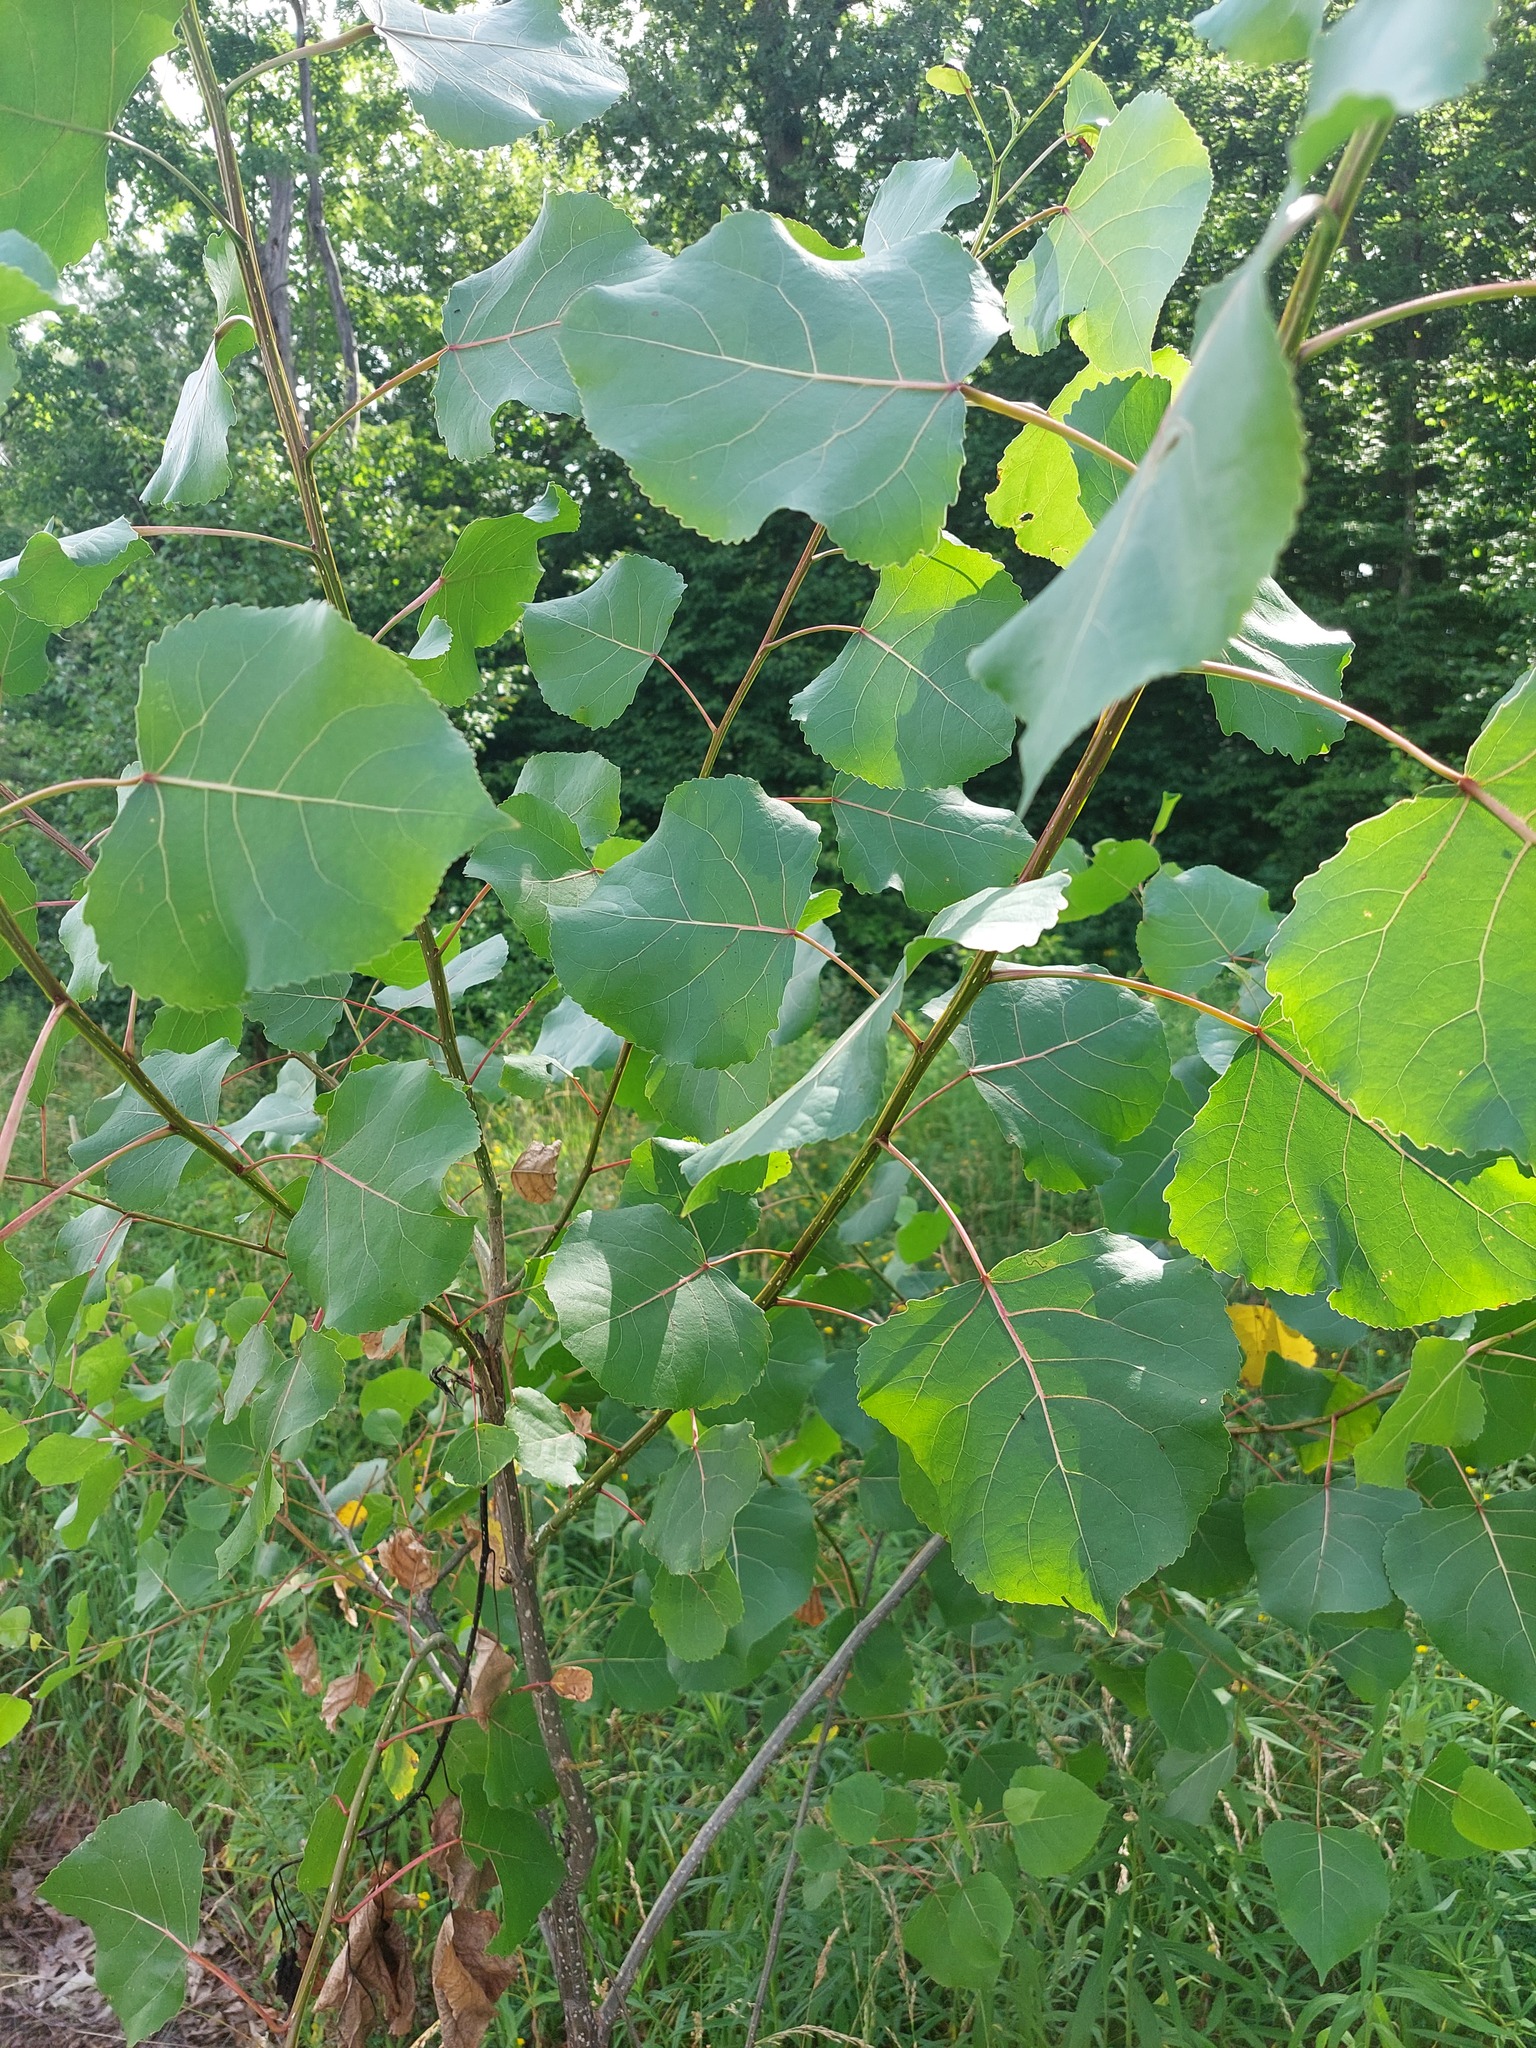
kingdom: Plantae
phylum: Tracheophyta
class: Magnoliopsida
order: Malpighiales
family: Salicaceae
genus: Populus
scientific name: Populus deltoides
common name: Eastern cottonwood
